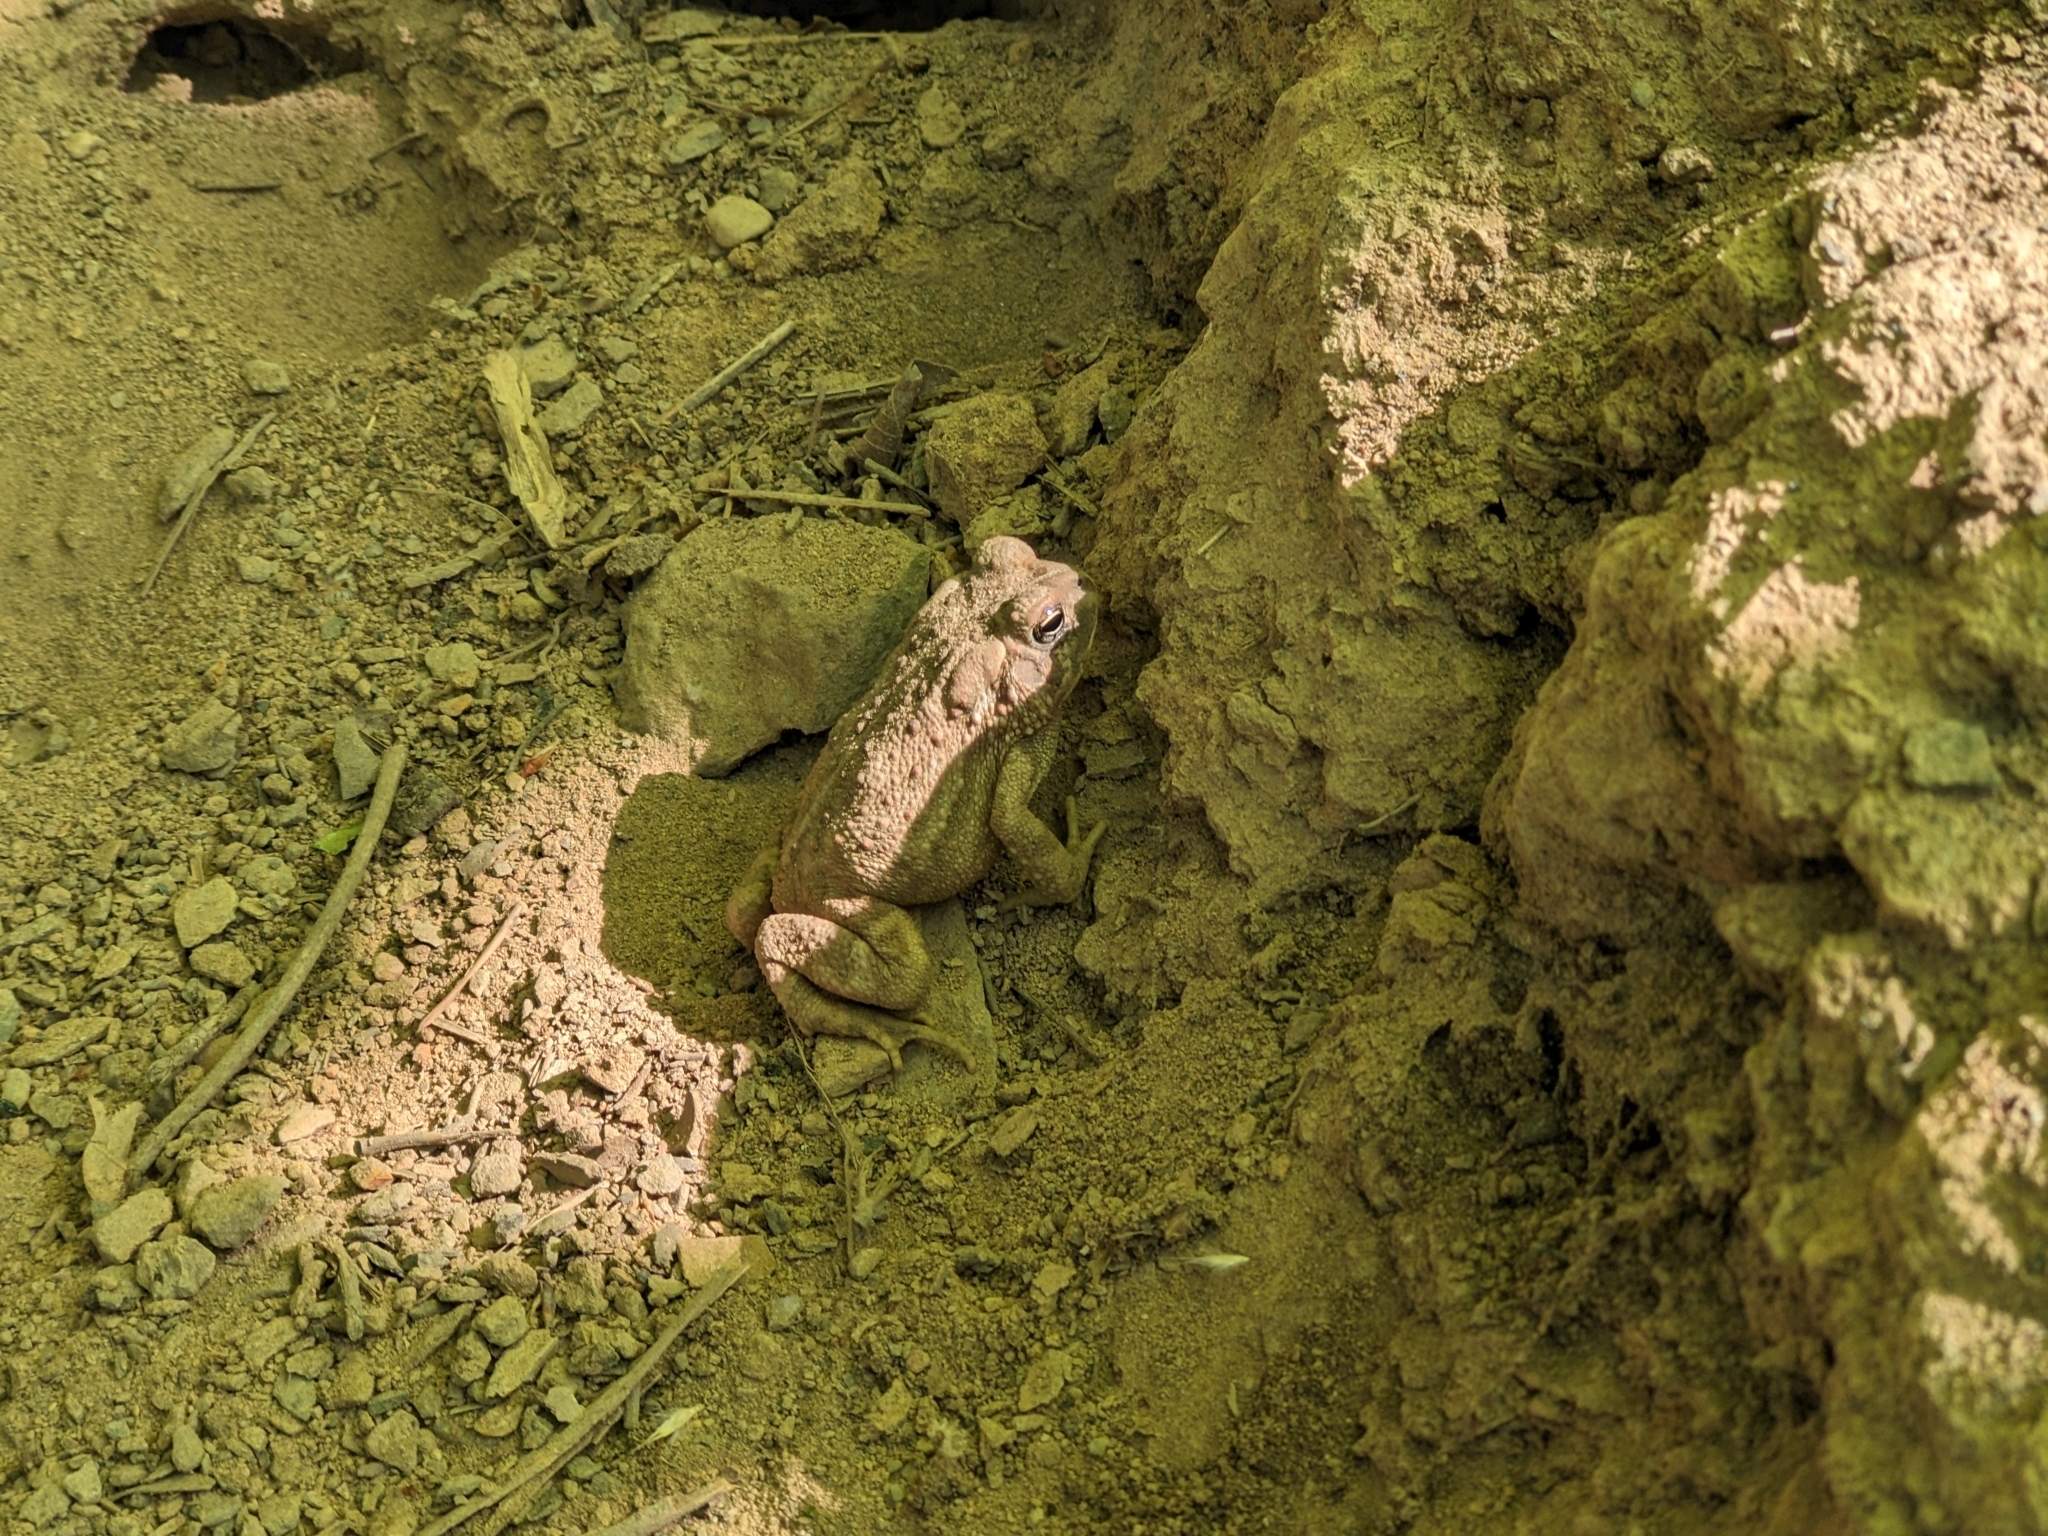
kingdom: Animalia
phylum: Chordata
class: Amphibia
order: Anura
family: Bufonidae
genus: Anaxyrus
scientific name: Anaxyrus americanus
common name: American toad
